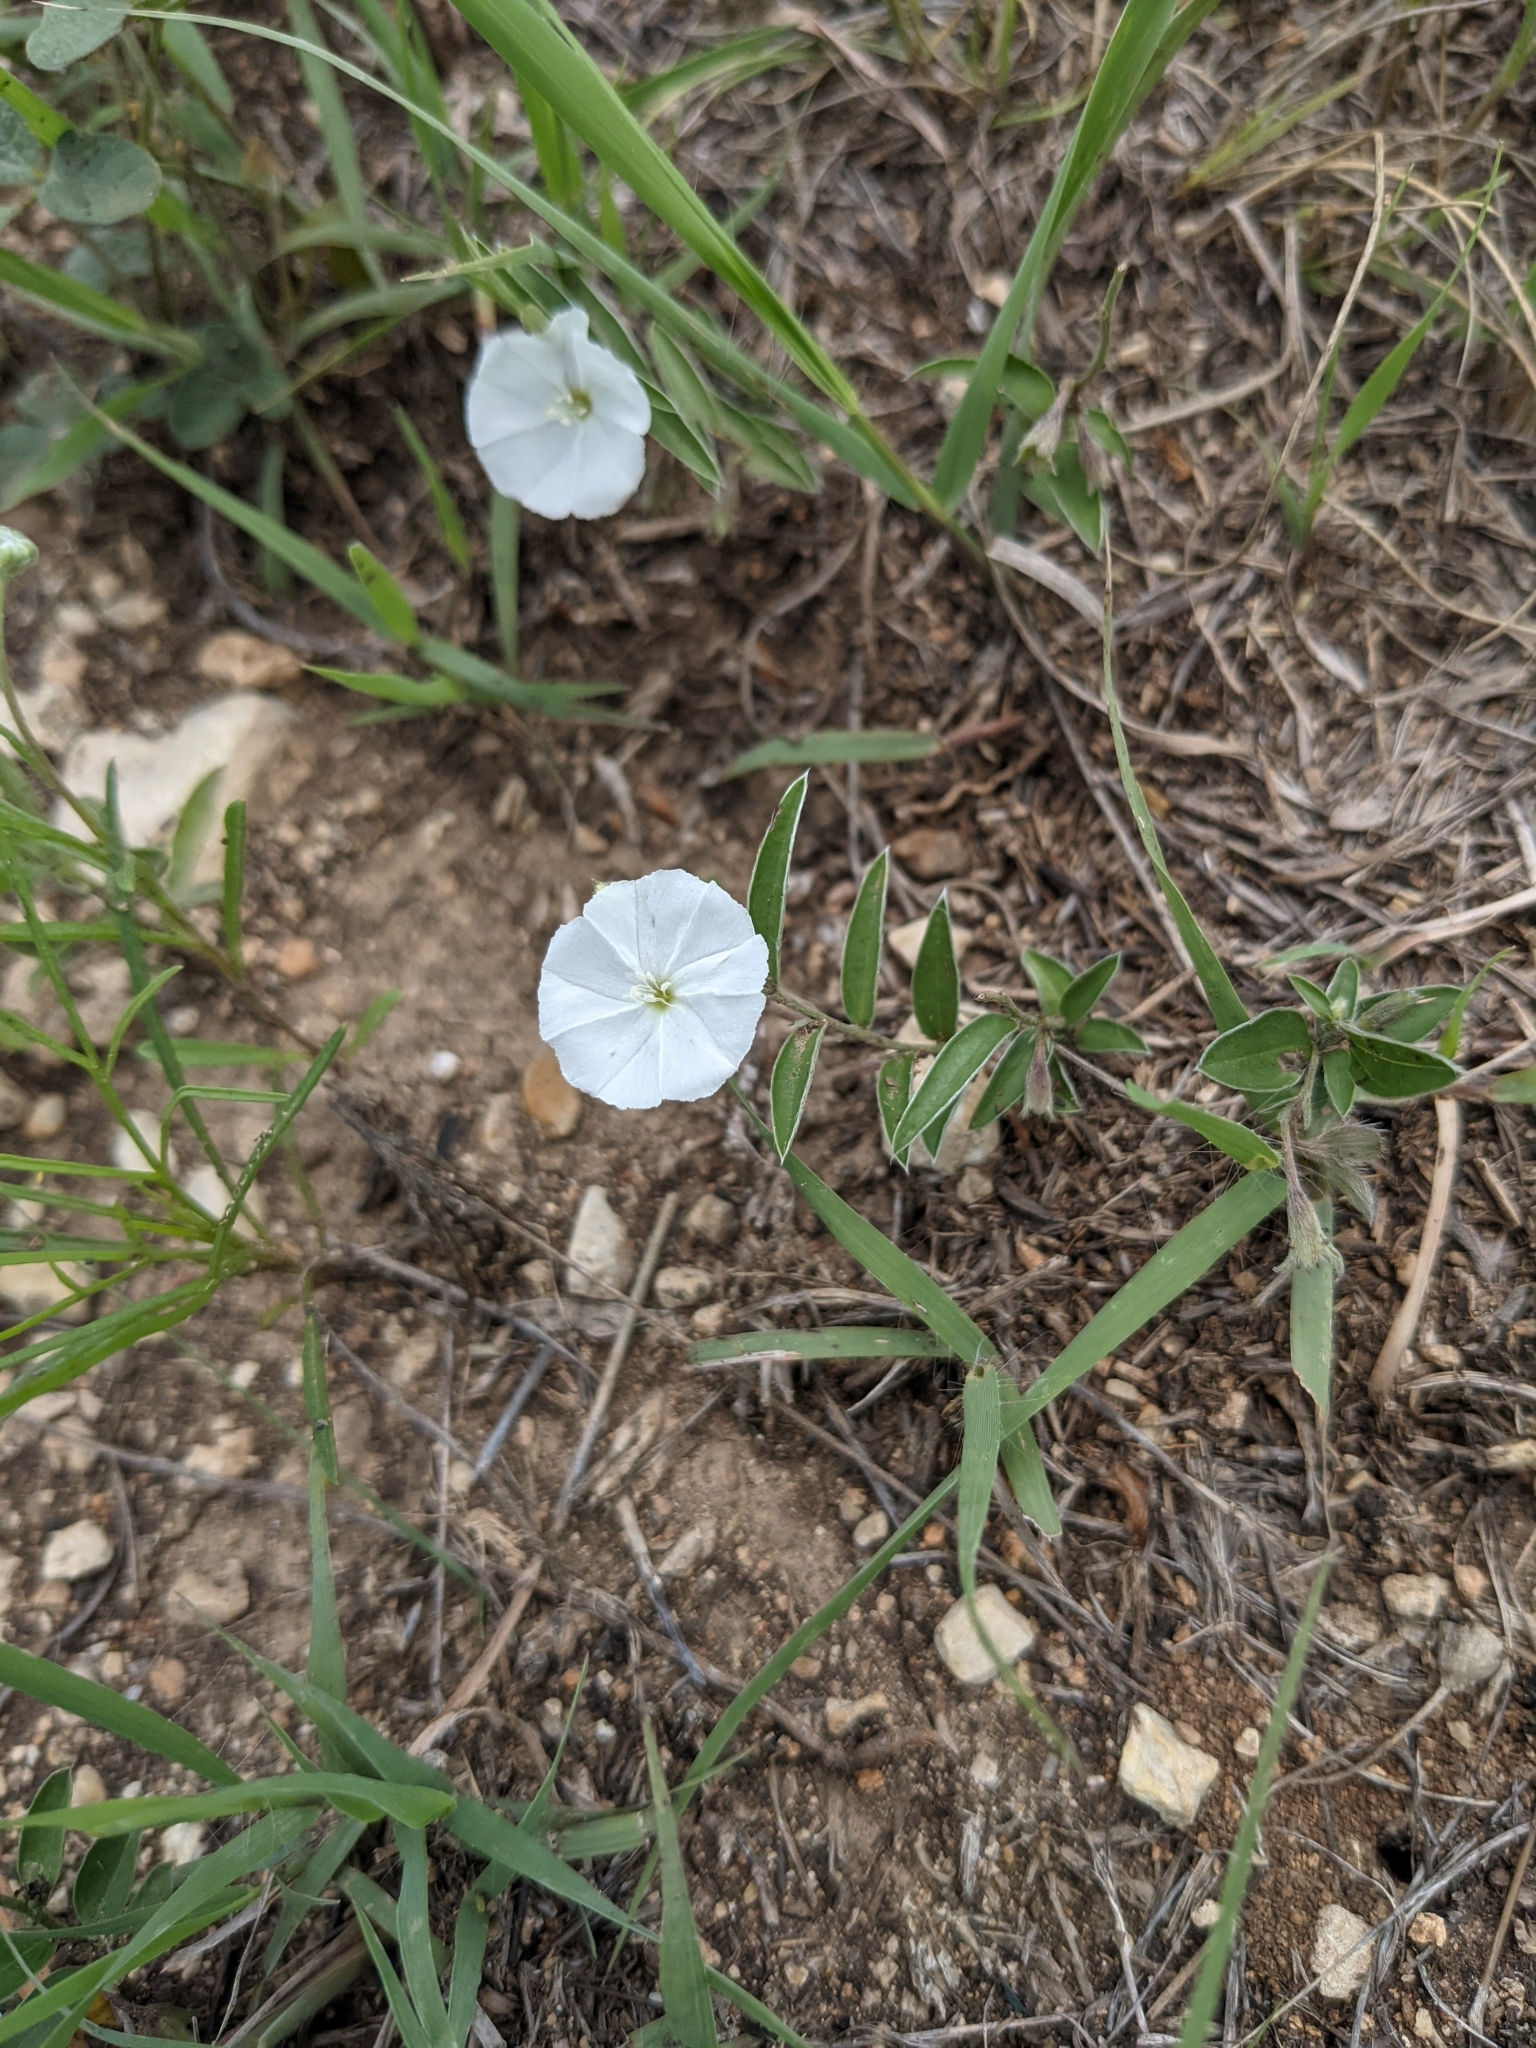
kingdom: Plantae
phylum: Tracheophyta
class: Magnoliopsida
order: Solanales
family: Convolvulaceae
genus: Evolvulus
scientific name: Evolvulus sericeus
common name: Blue dots
